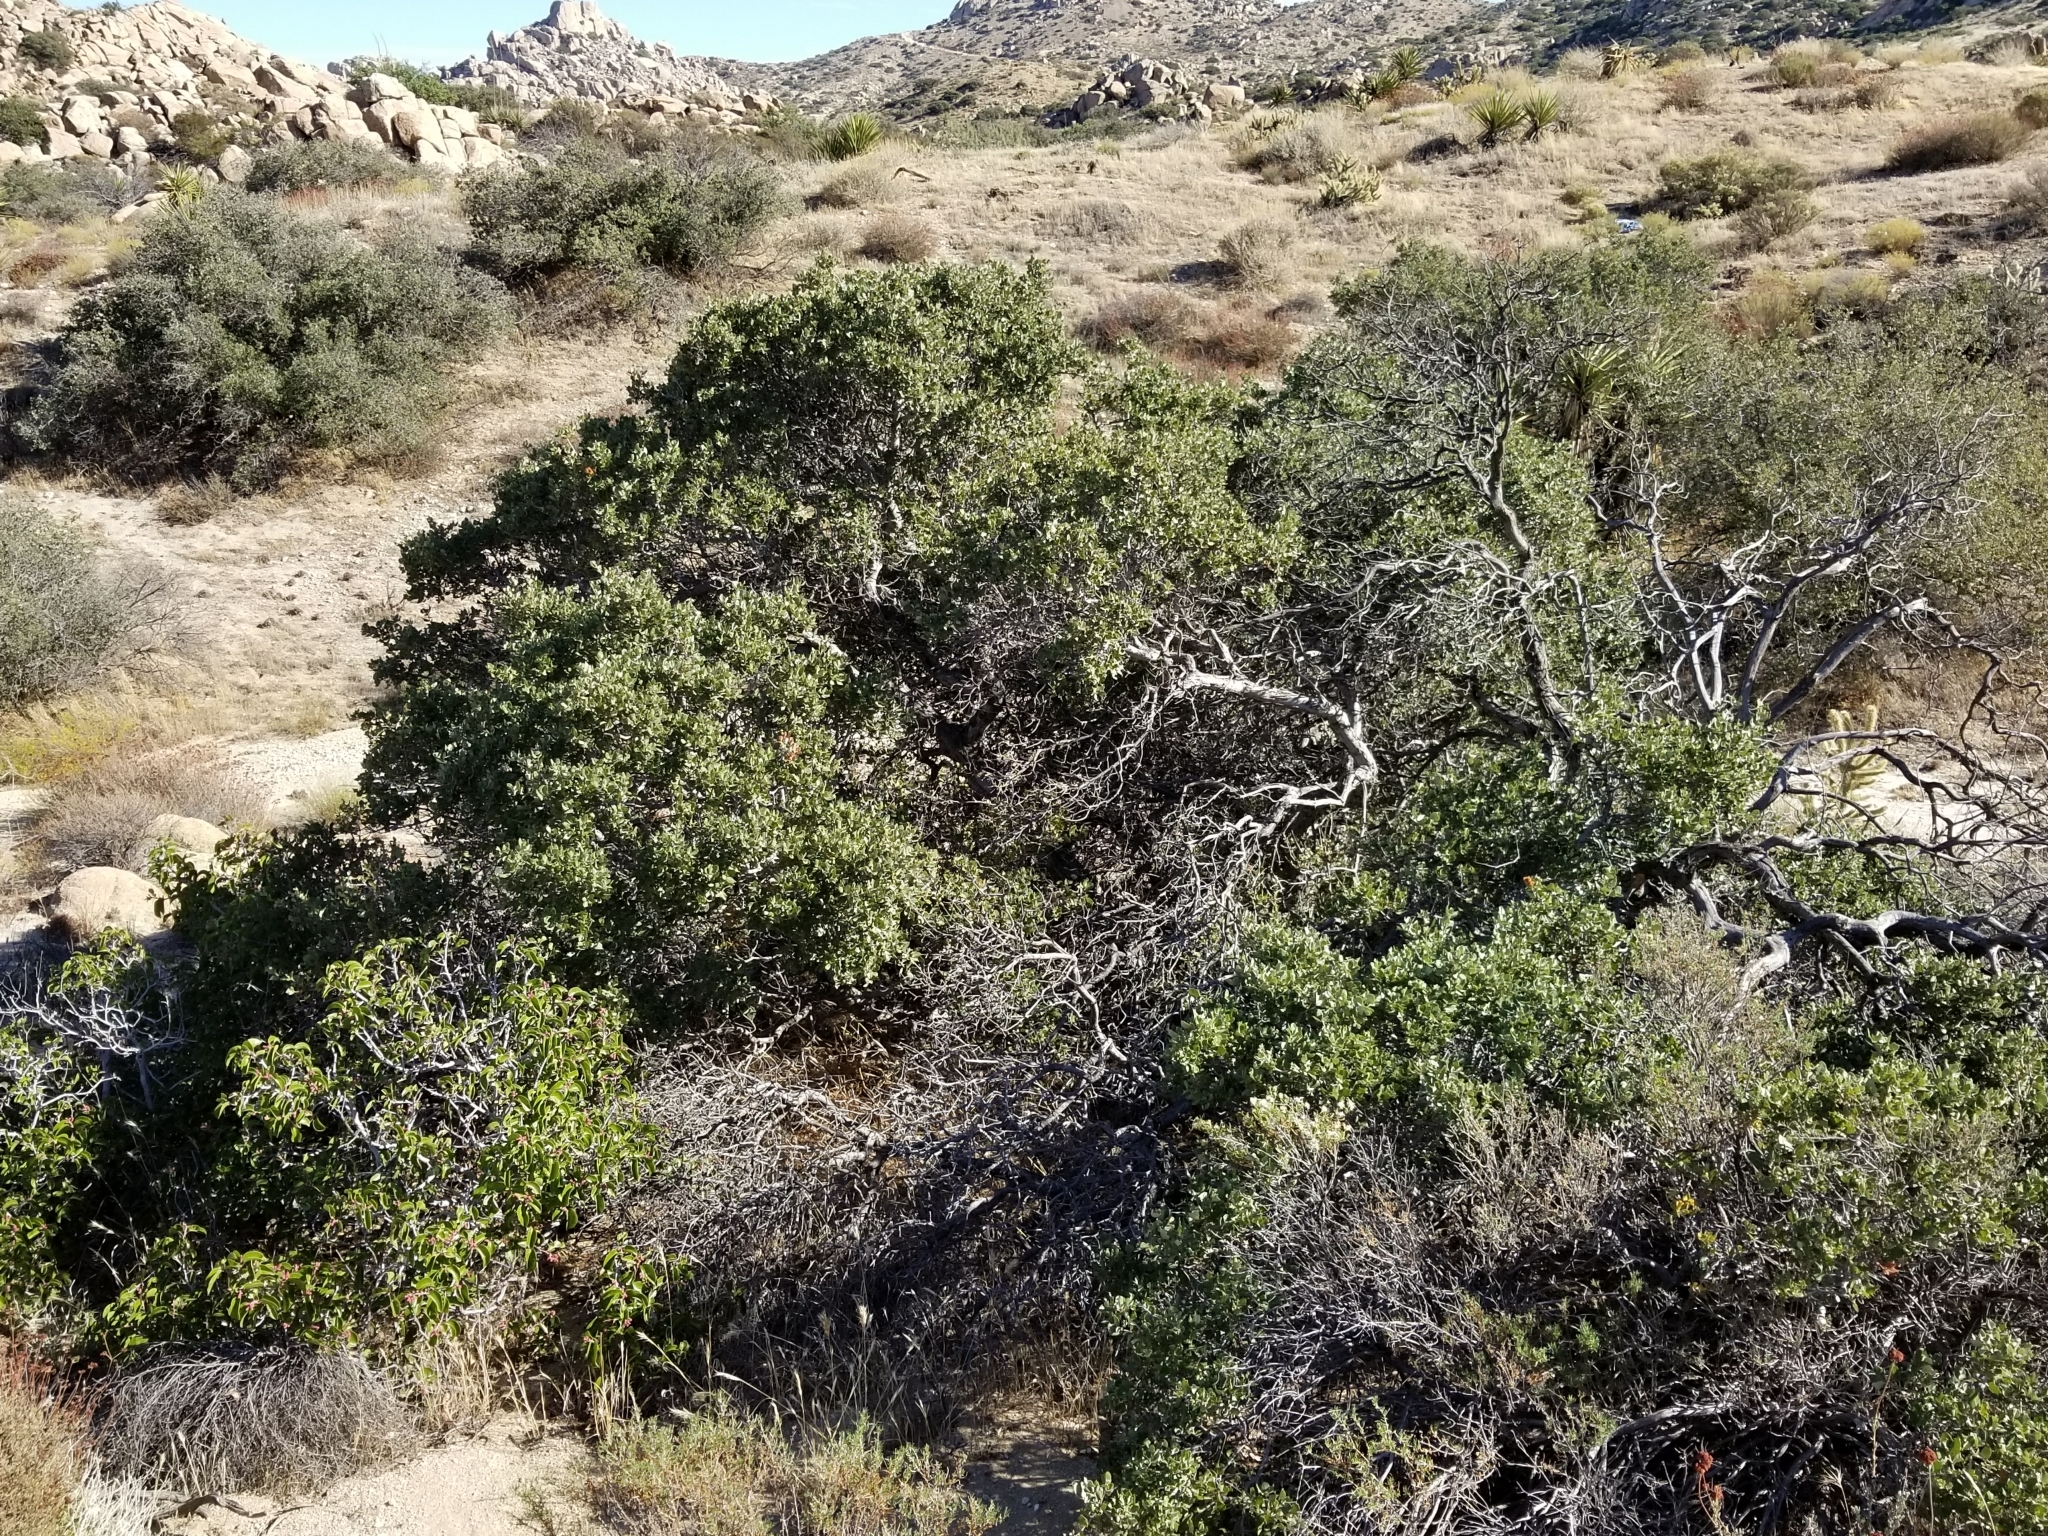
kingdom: Plantae
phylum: Tracheophyta
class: Magnoliopsida
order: Fagales
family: Fagaceae
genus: Quercus
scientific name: Quercus cornelius-mulleri
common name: Muller oak
